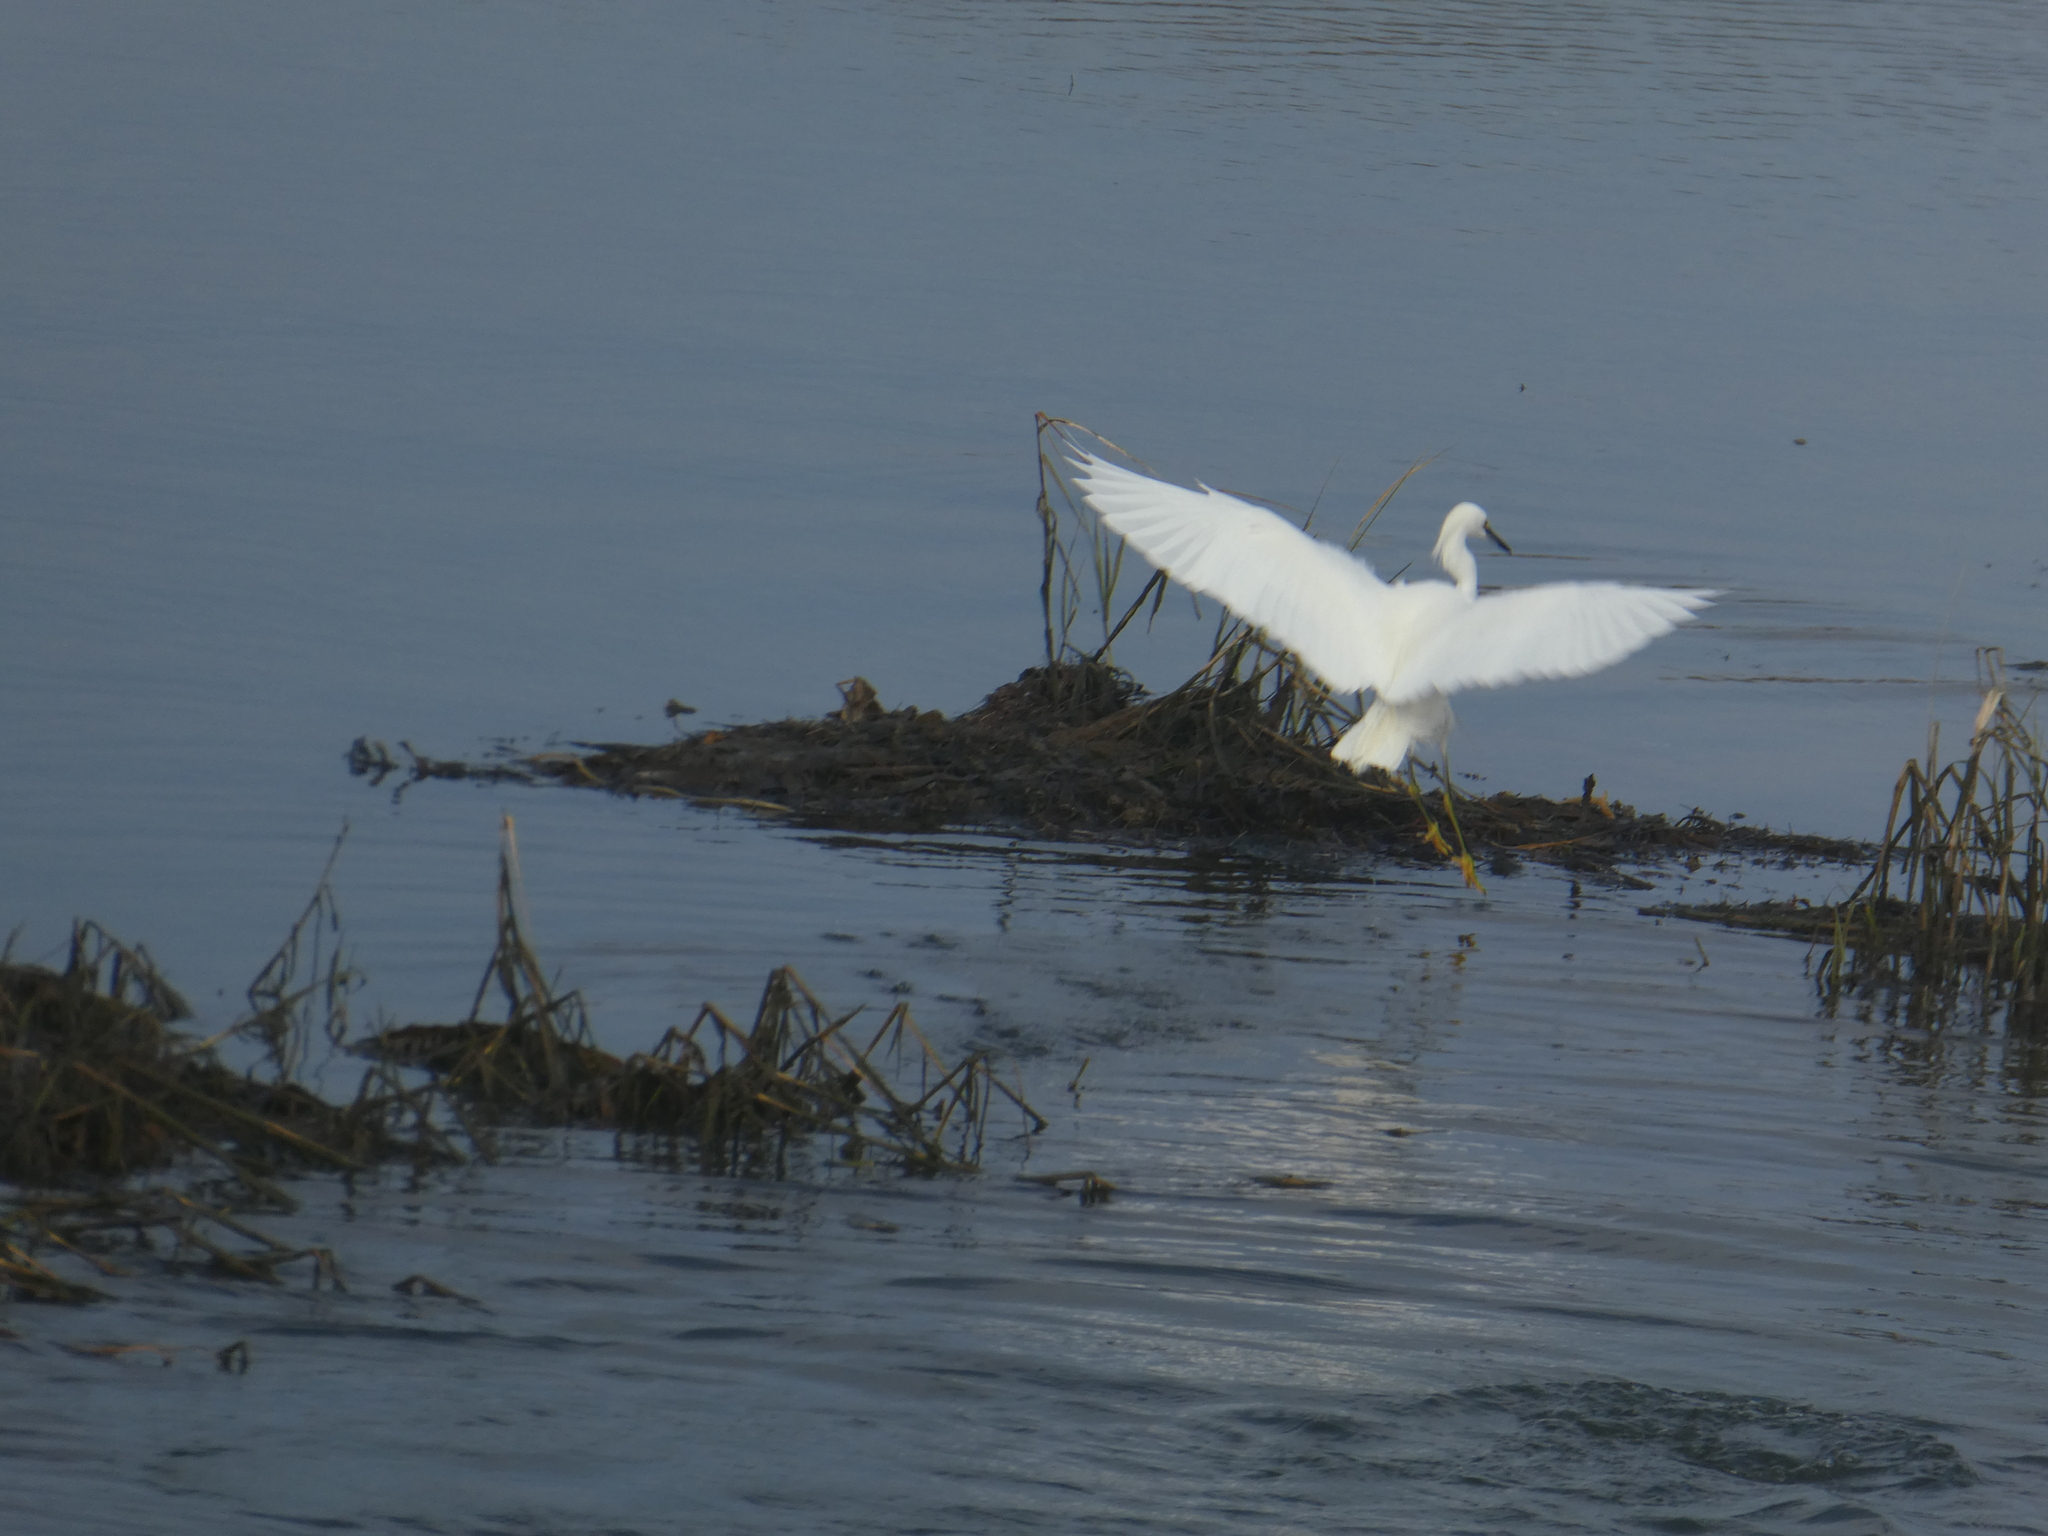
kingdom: Animalia
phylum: Chordata
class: Aves
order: Pelecaniformes
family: Ardeidae
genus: Egretta
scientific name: Egretta thula
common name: Snowy egret
